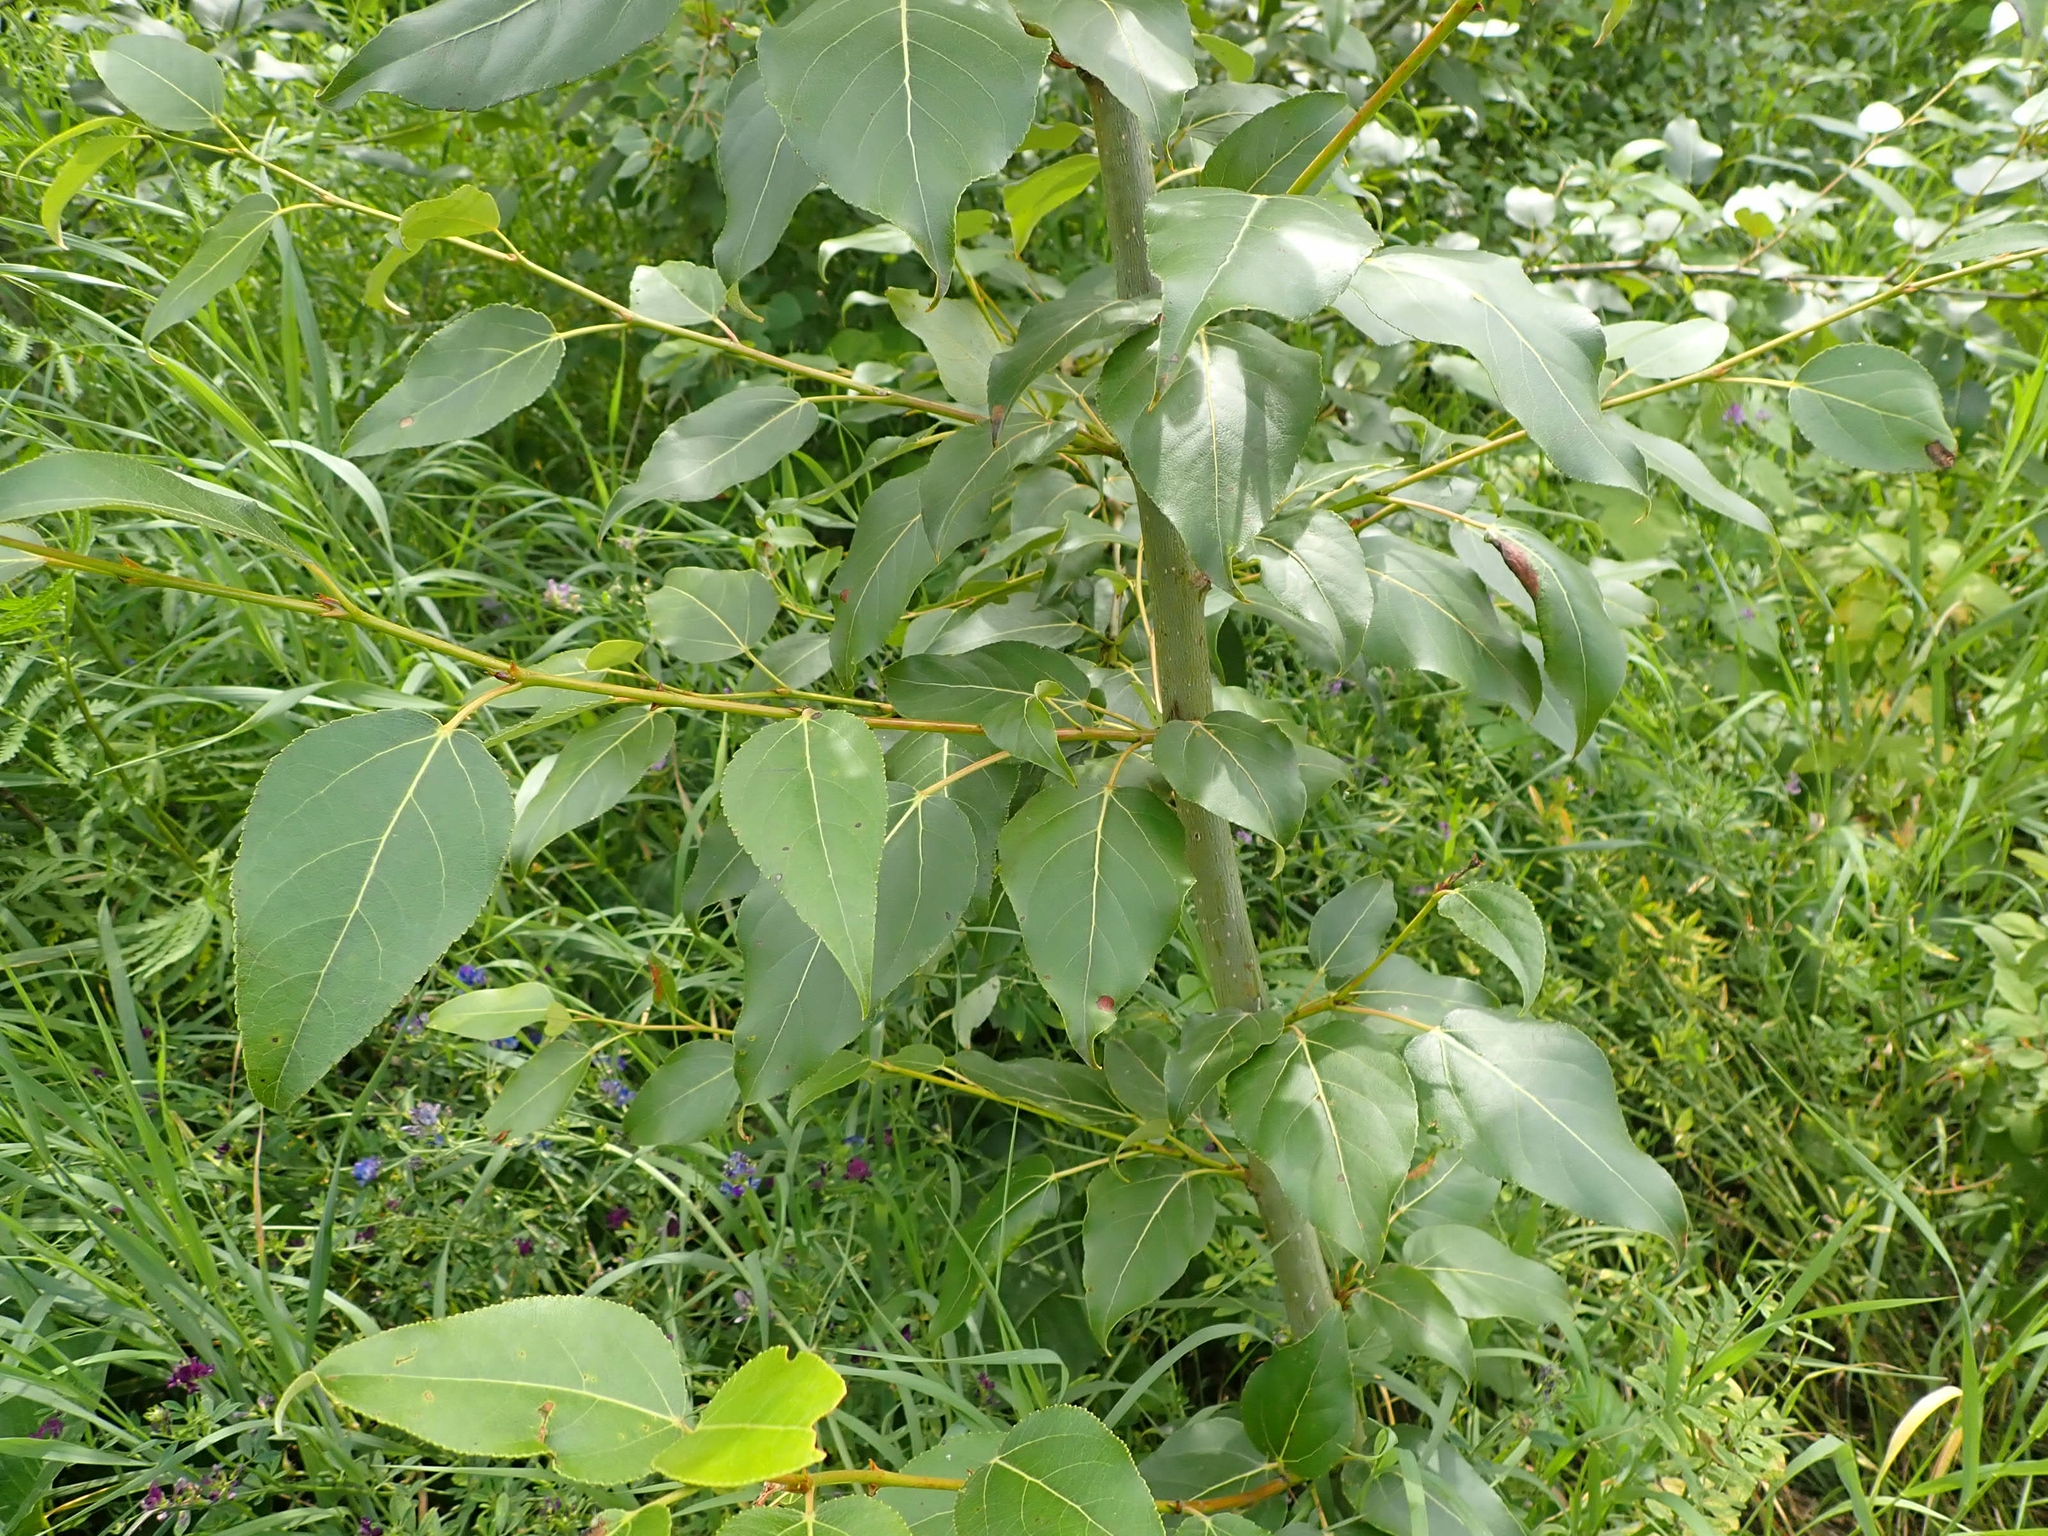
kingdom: Plantae
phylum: Tracheophyta
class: Magnoliopsida
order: Malpighiales
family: Salicaceae
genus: Populus
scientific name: Populus balsamifera
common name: Balsam poplar
